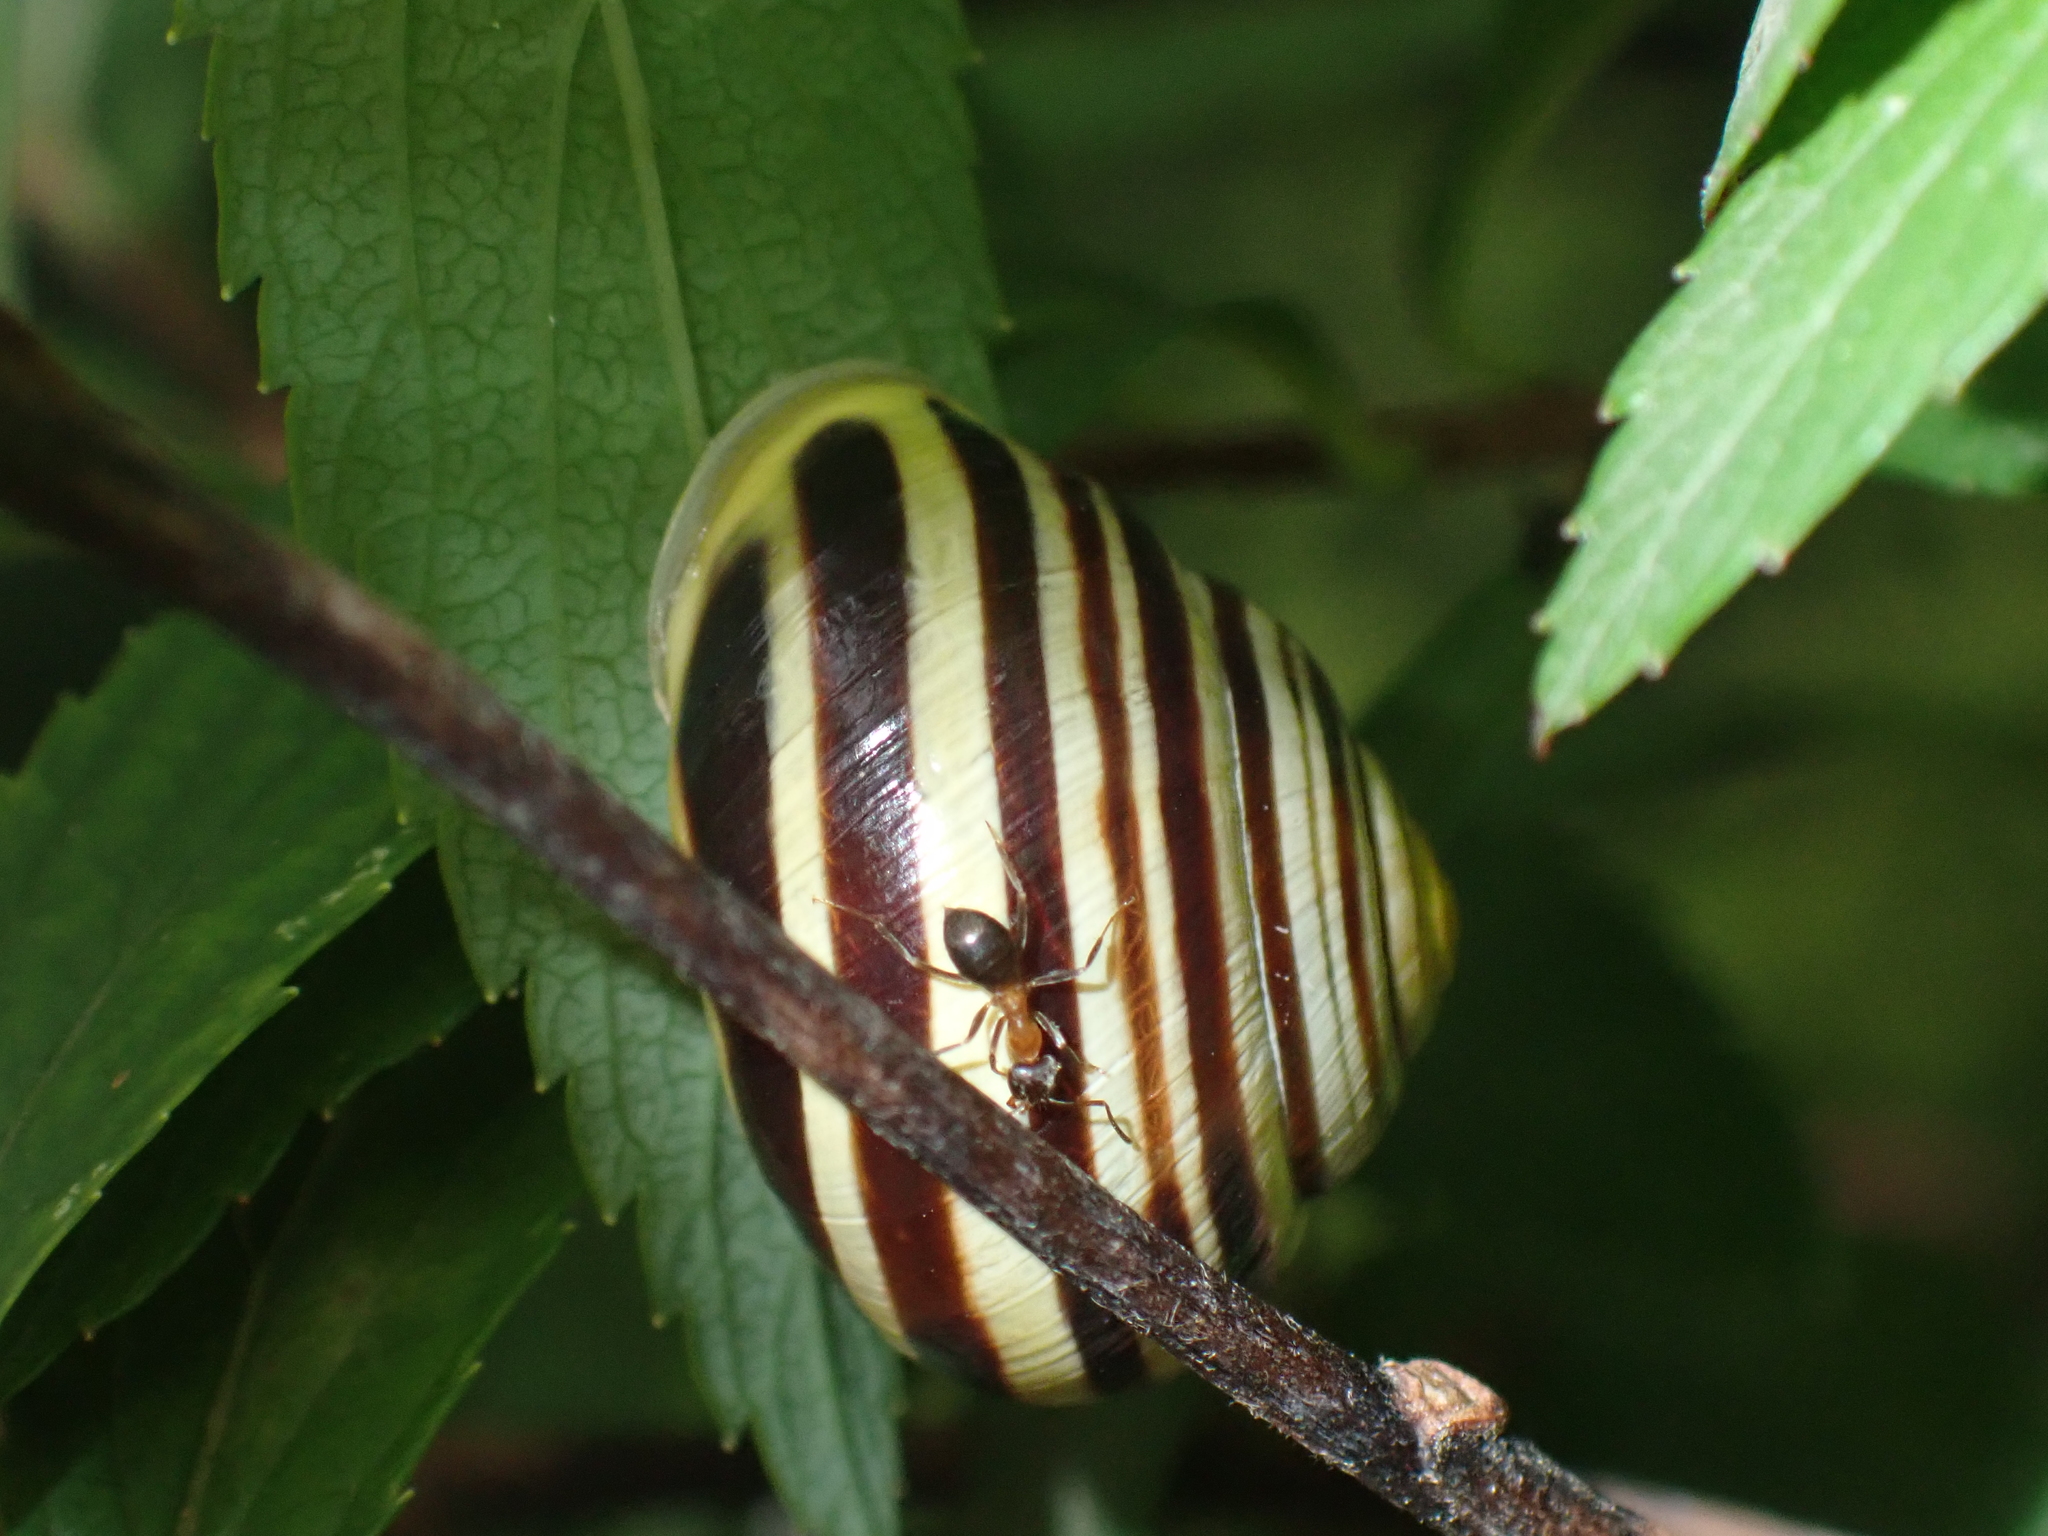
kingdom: Animalia
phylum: Mollusca
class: Gastropoda
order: Stylommatophora
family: Helicidae
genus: Cepaea
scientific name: Cepaea hortensis
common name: White-lip gardensnail
